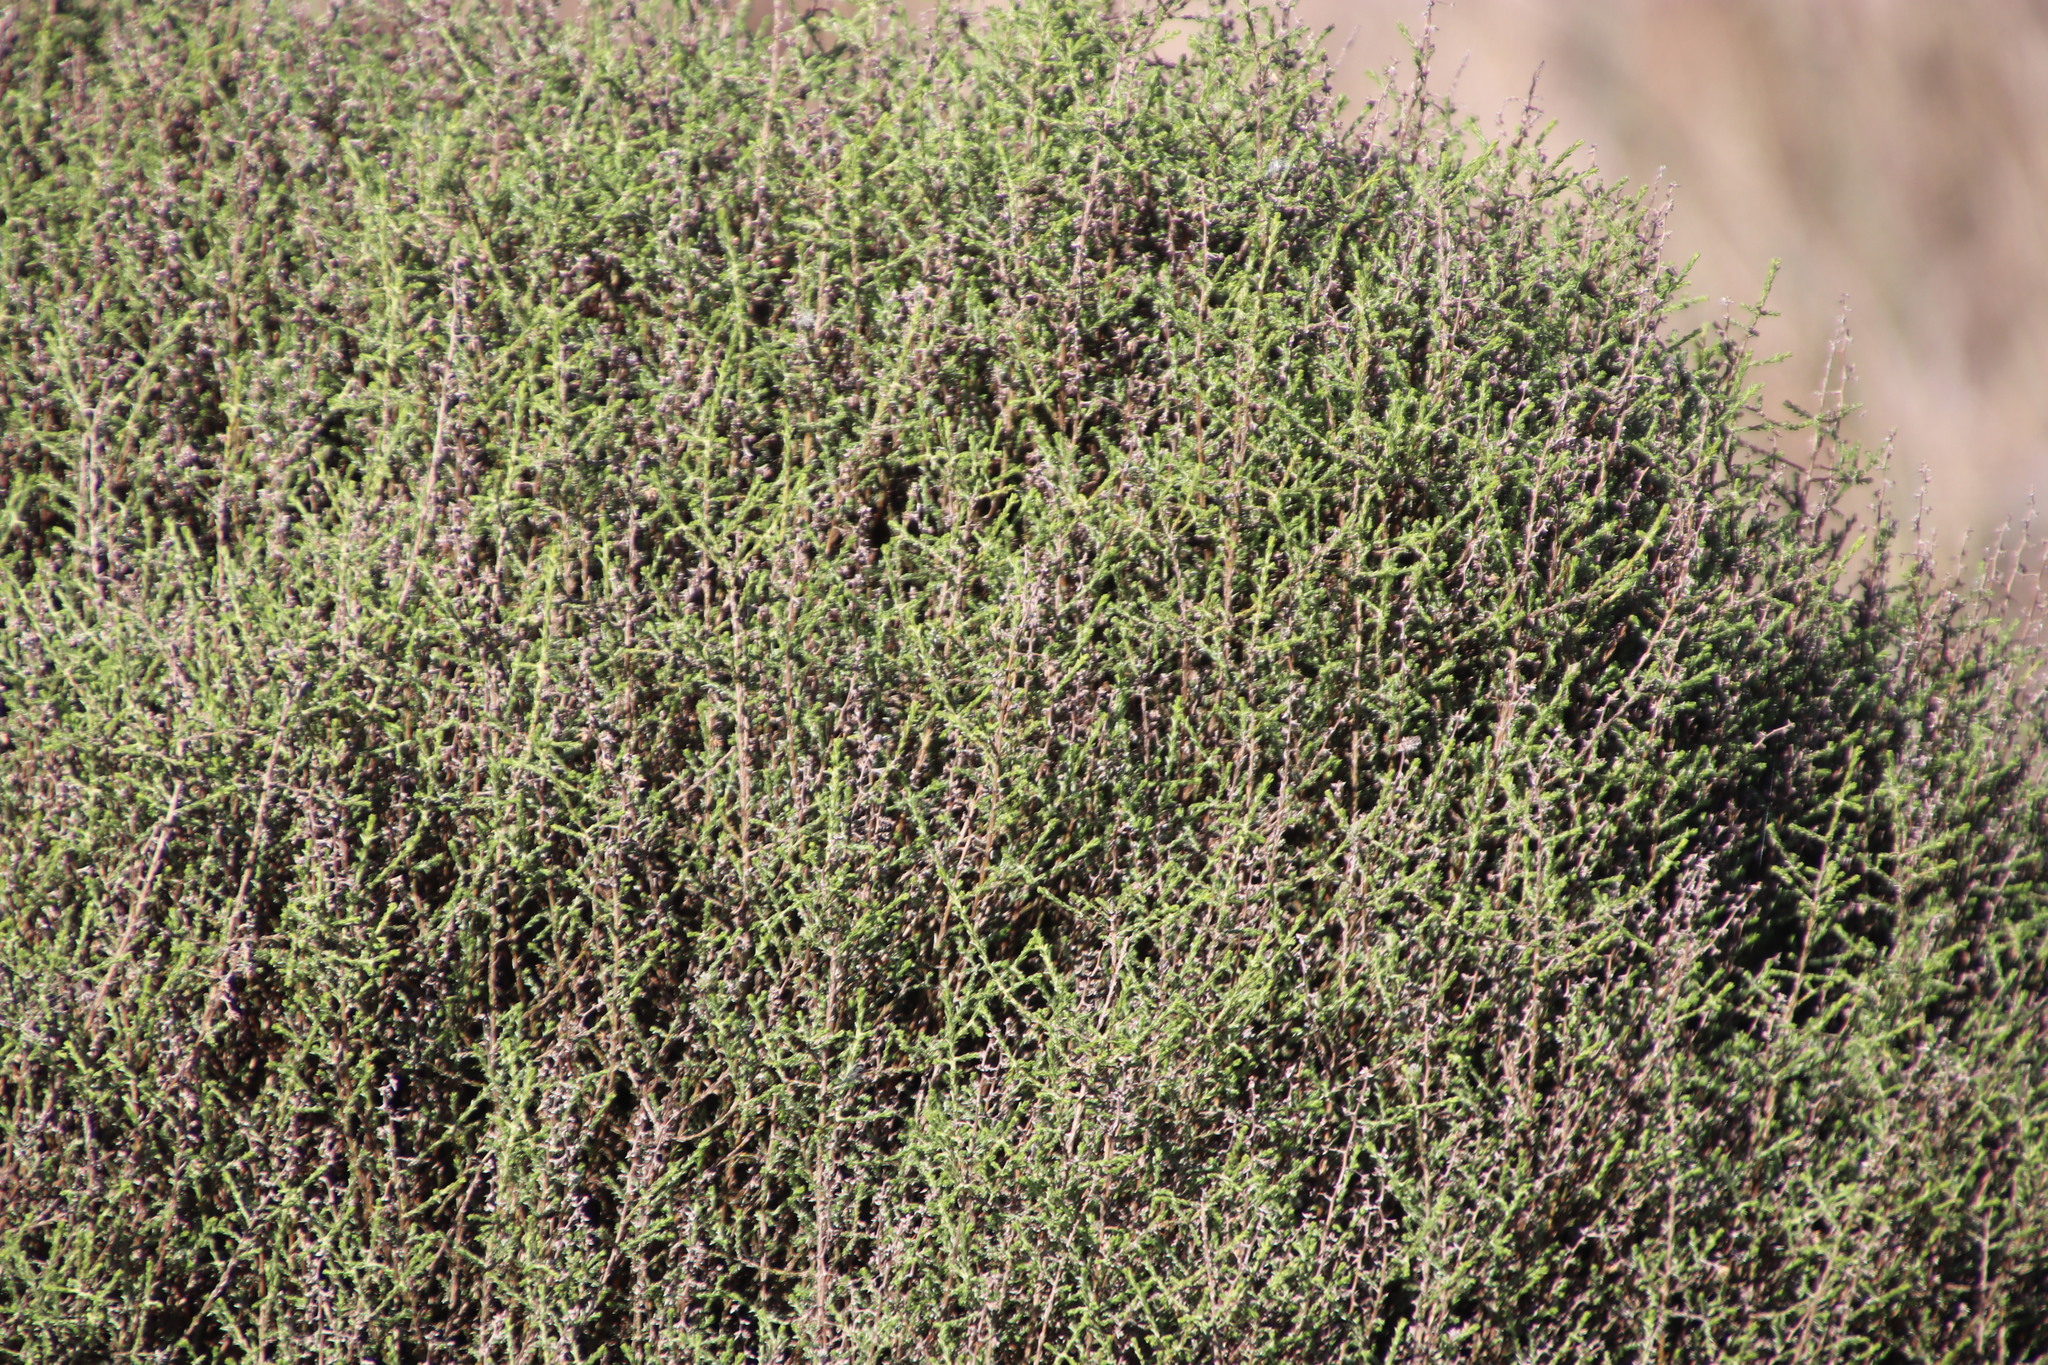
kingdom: Plantae
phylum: Tracheophyta
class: Magnoliopsida
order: Asterales
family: Asteraceae
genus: Myrovernix
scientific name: Myrovernix scaber
